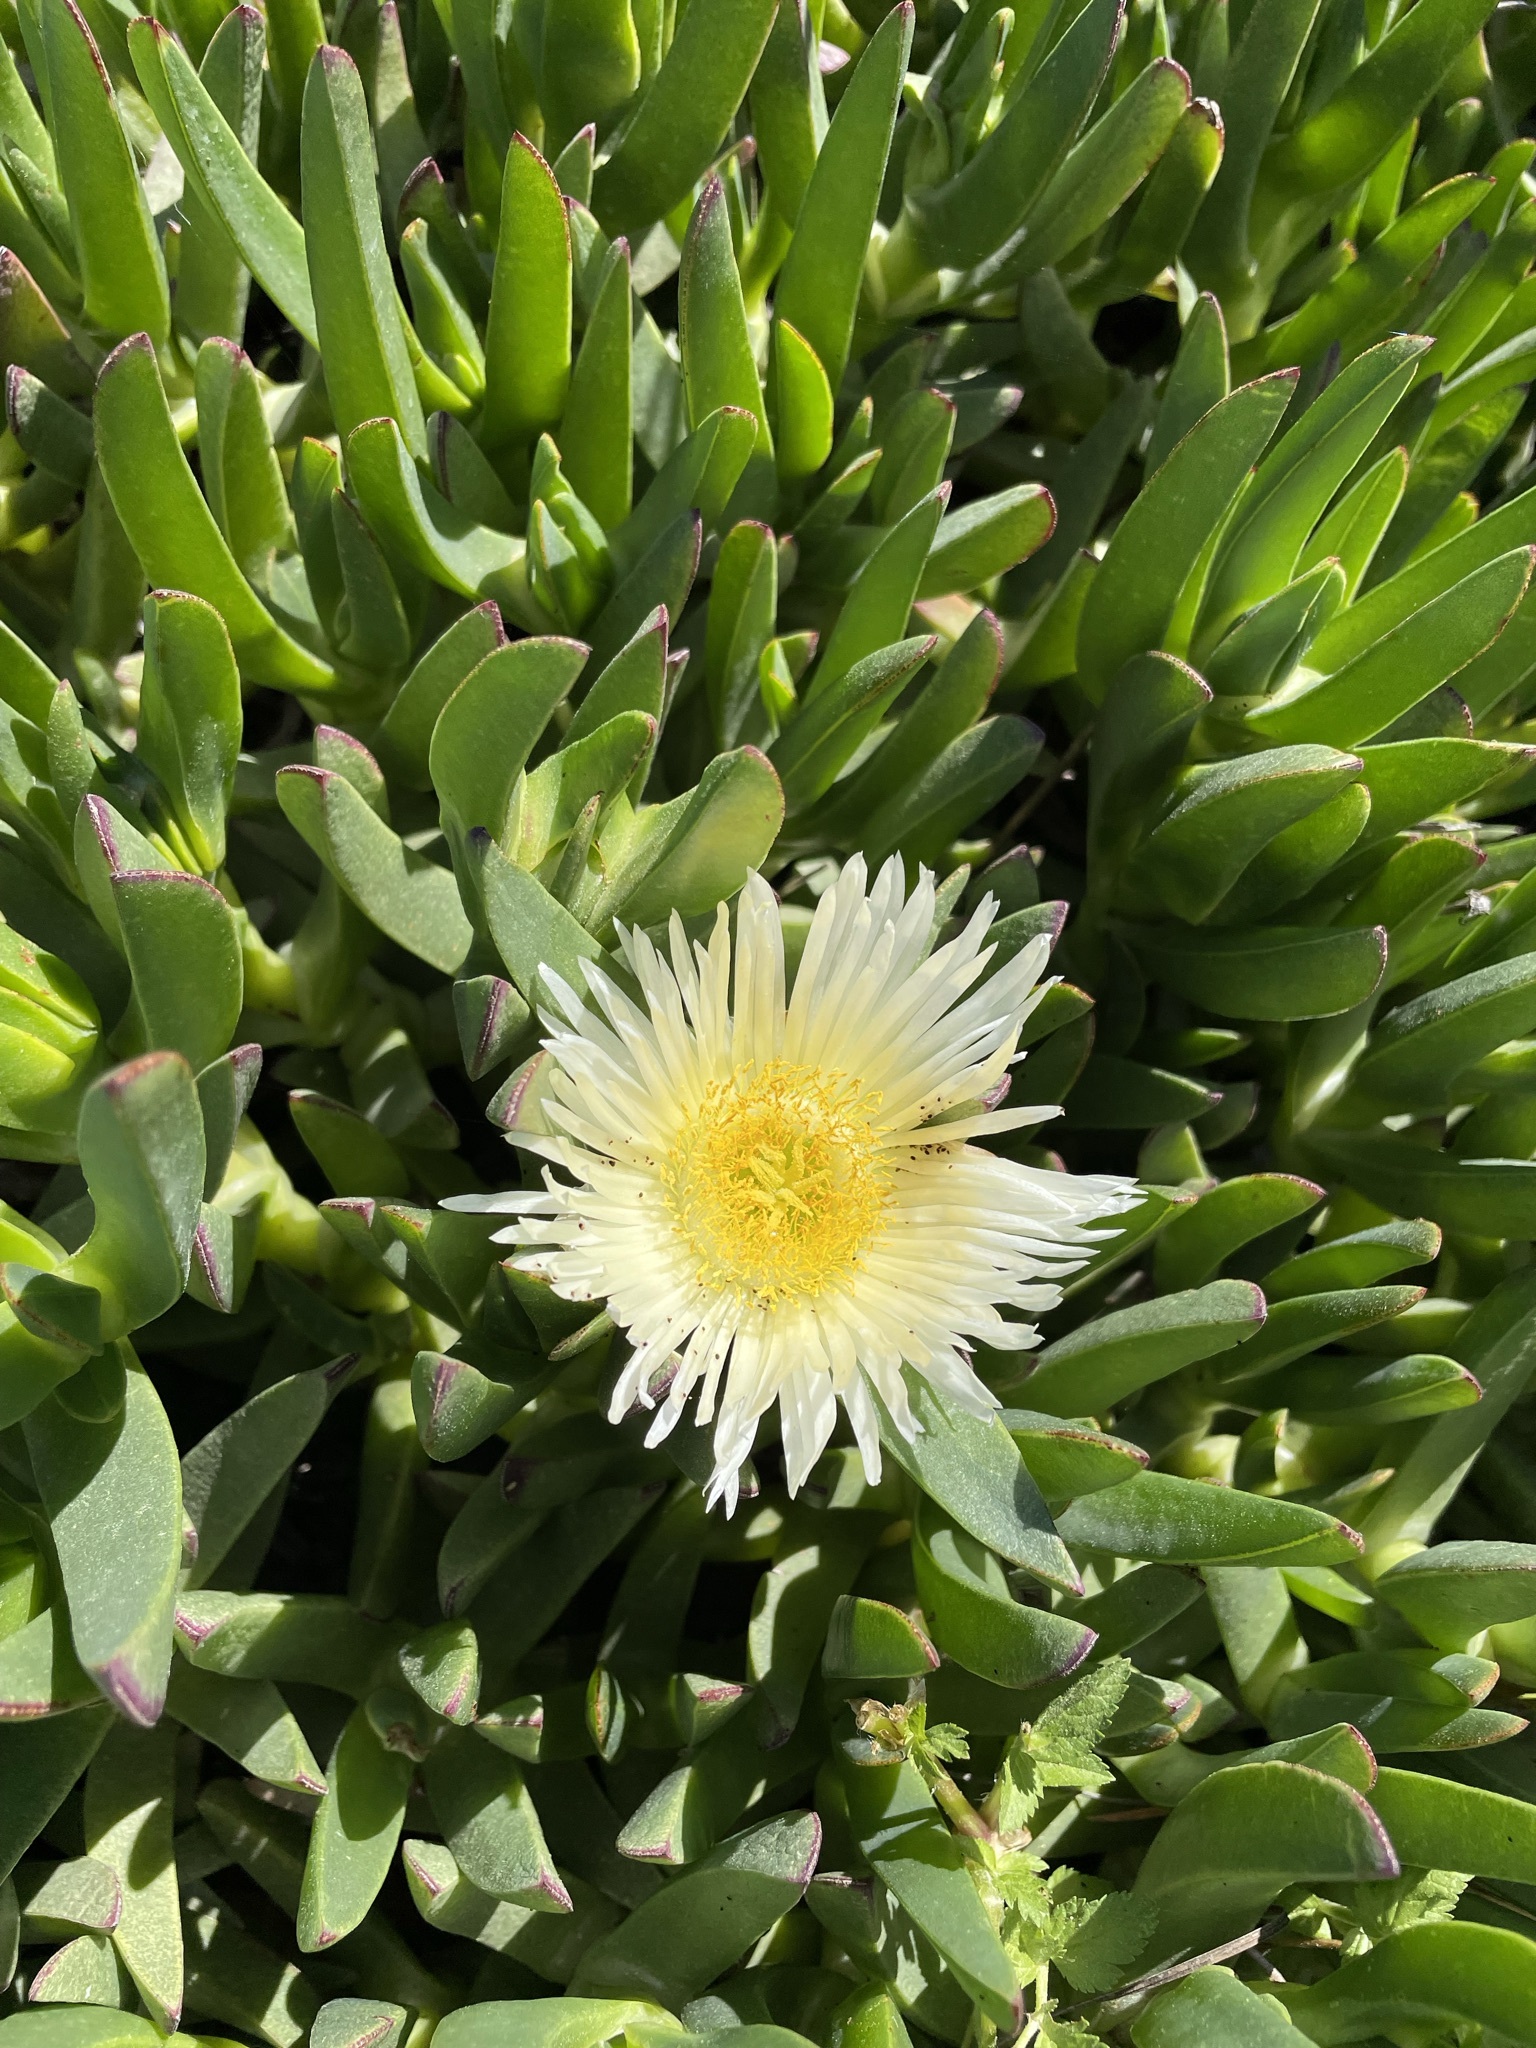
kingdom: Plantae
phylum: Tracheophyta
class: Magnoliopsida
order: Caryophyllales
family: Aizoaceae
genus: Carpobrotus
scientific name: Carpobrotus edulis
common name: Hottentot-fig
